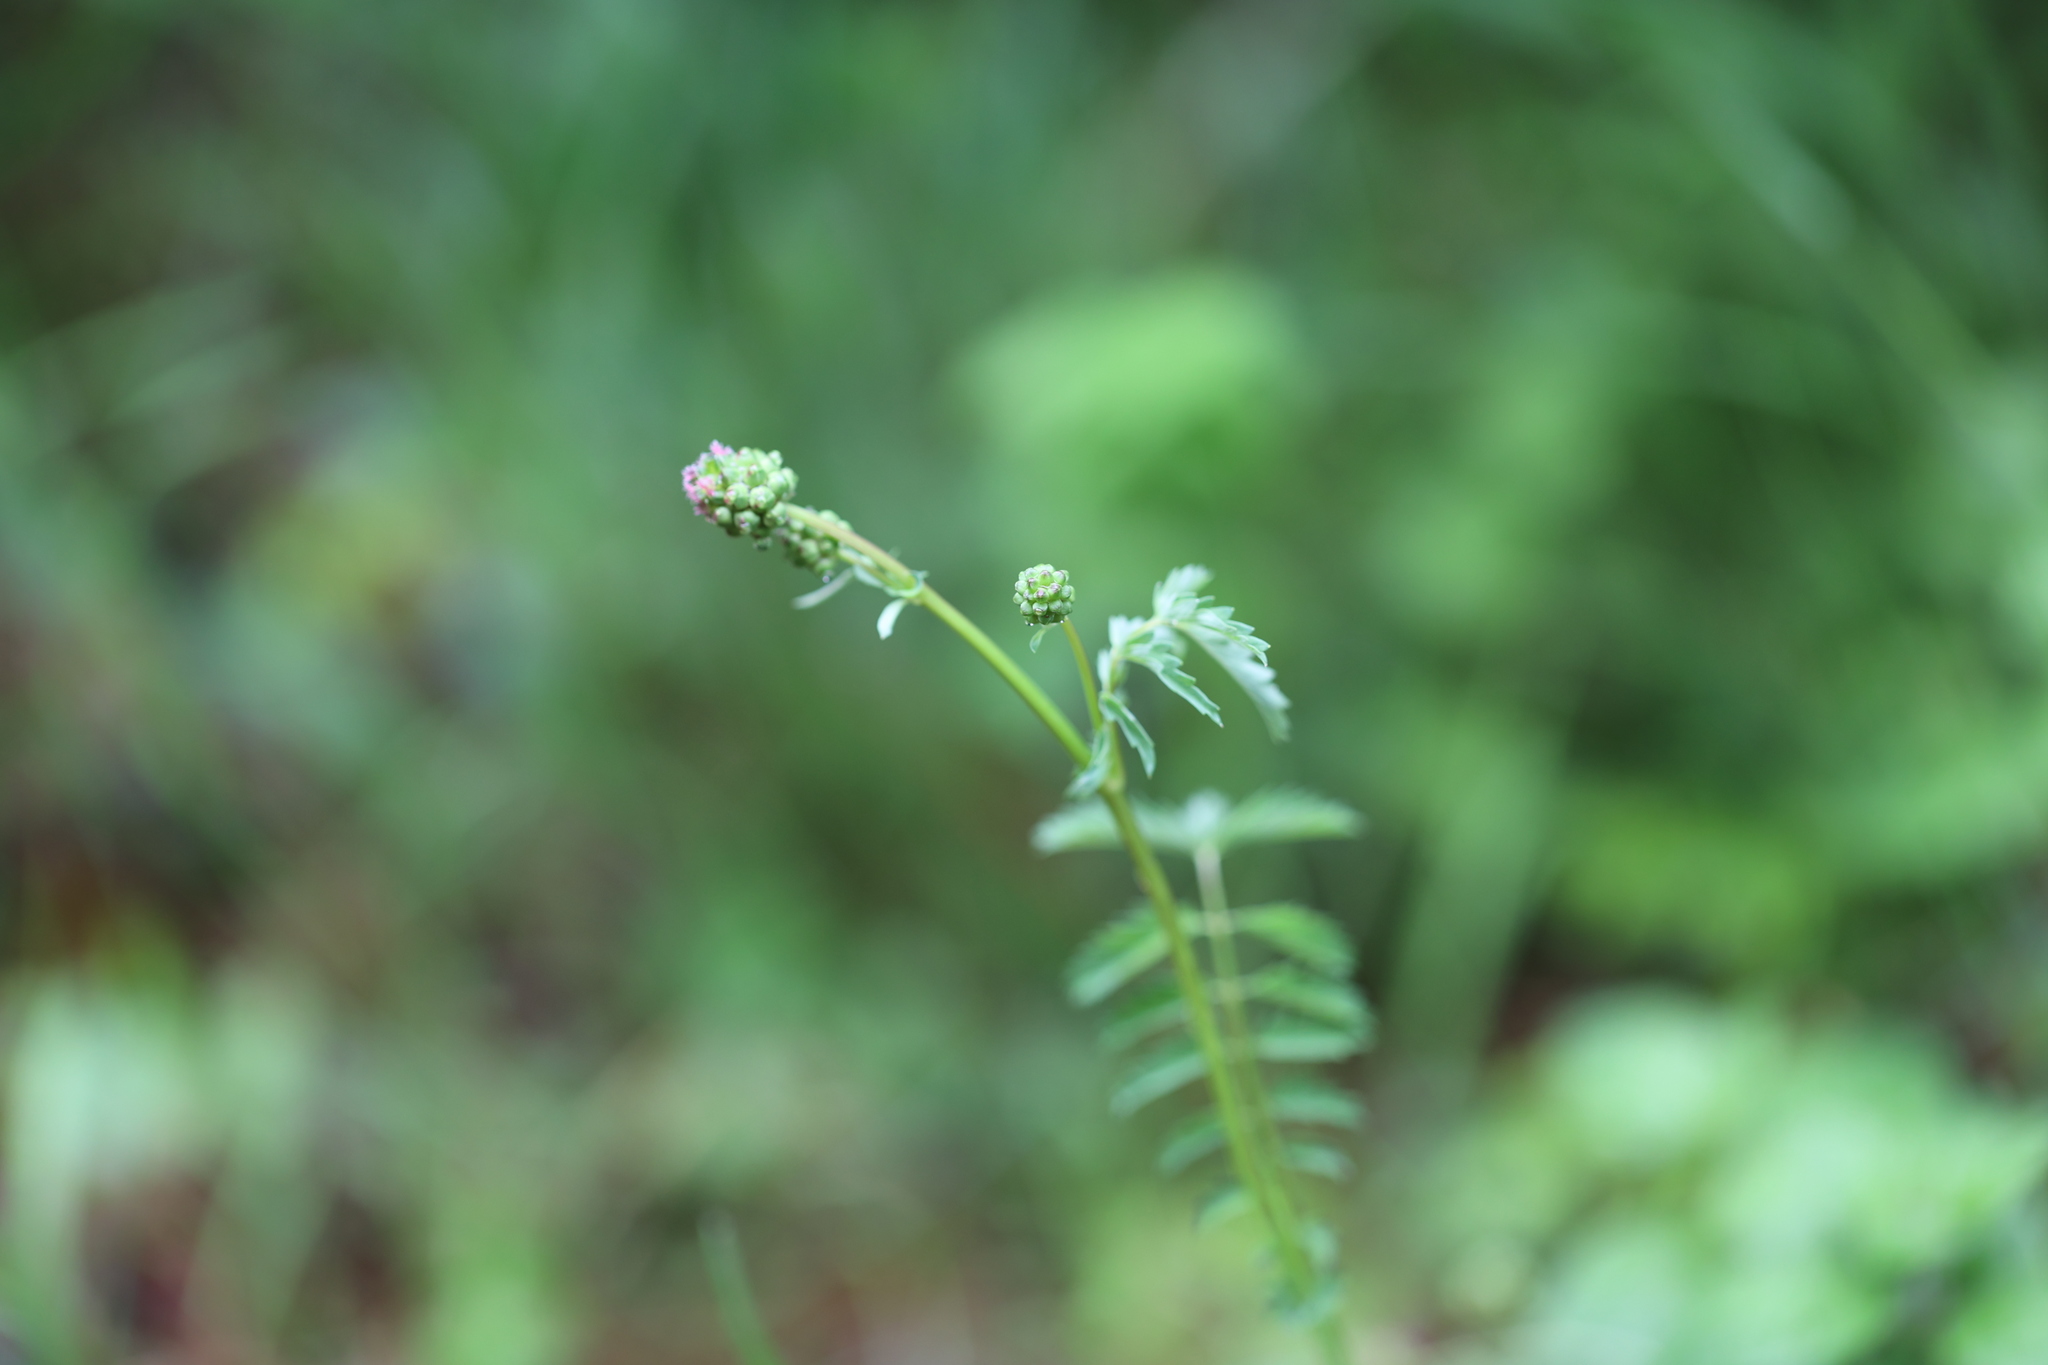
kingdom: Plantae
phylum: Tracheophyta
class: Magnoliopsida
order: Rosales
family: Rosaceae
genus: Poterium
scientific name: Poterium sanguisorba
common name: Salad burnet
